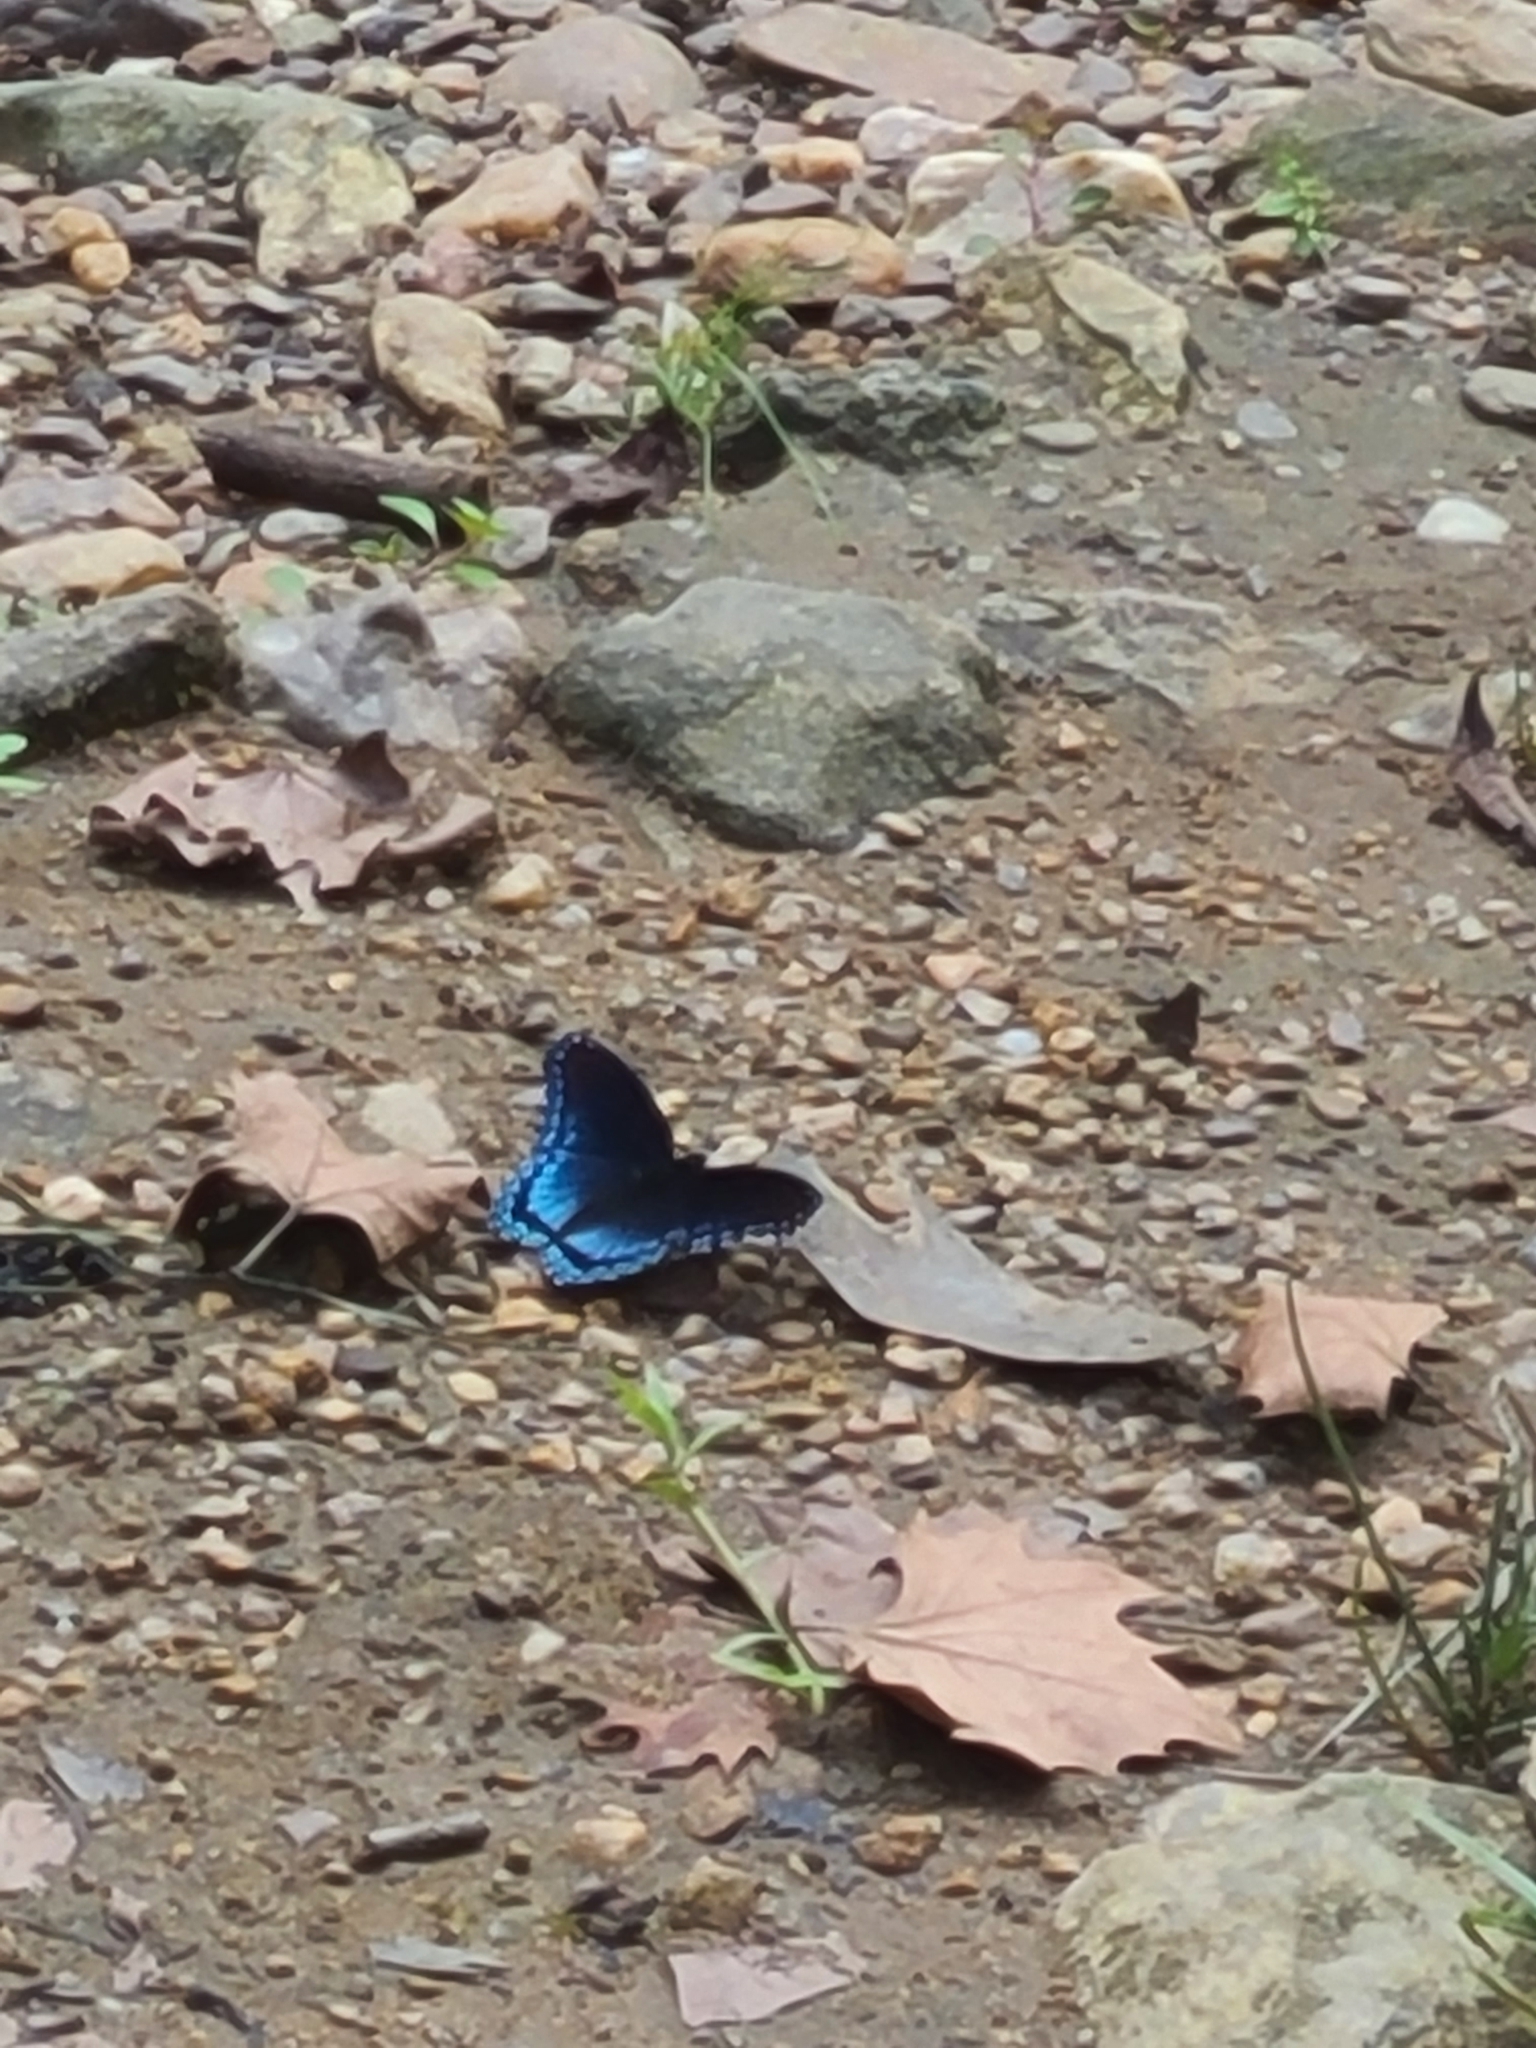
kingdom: Animalia
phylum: Arthropoda
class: Insecta
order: Lepidoptera
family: Nymphalidae
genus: Limenitis
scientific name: Limenitis astyanax
